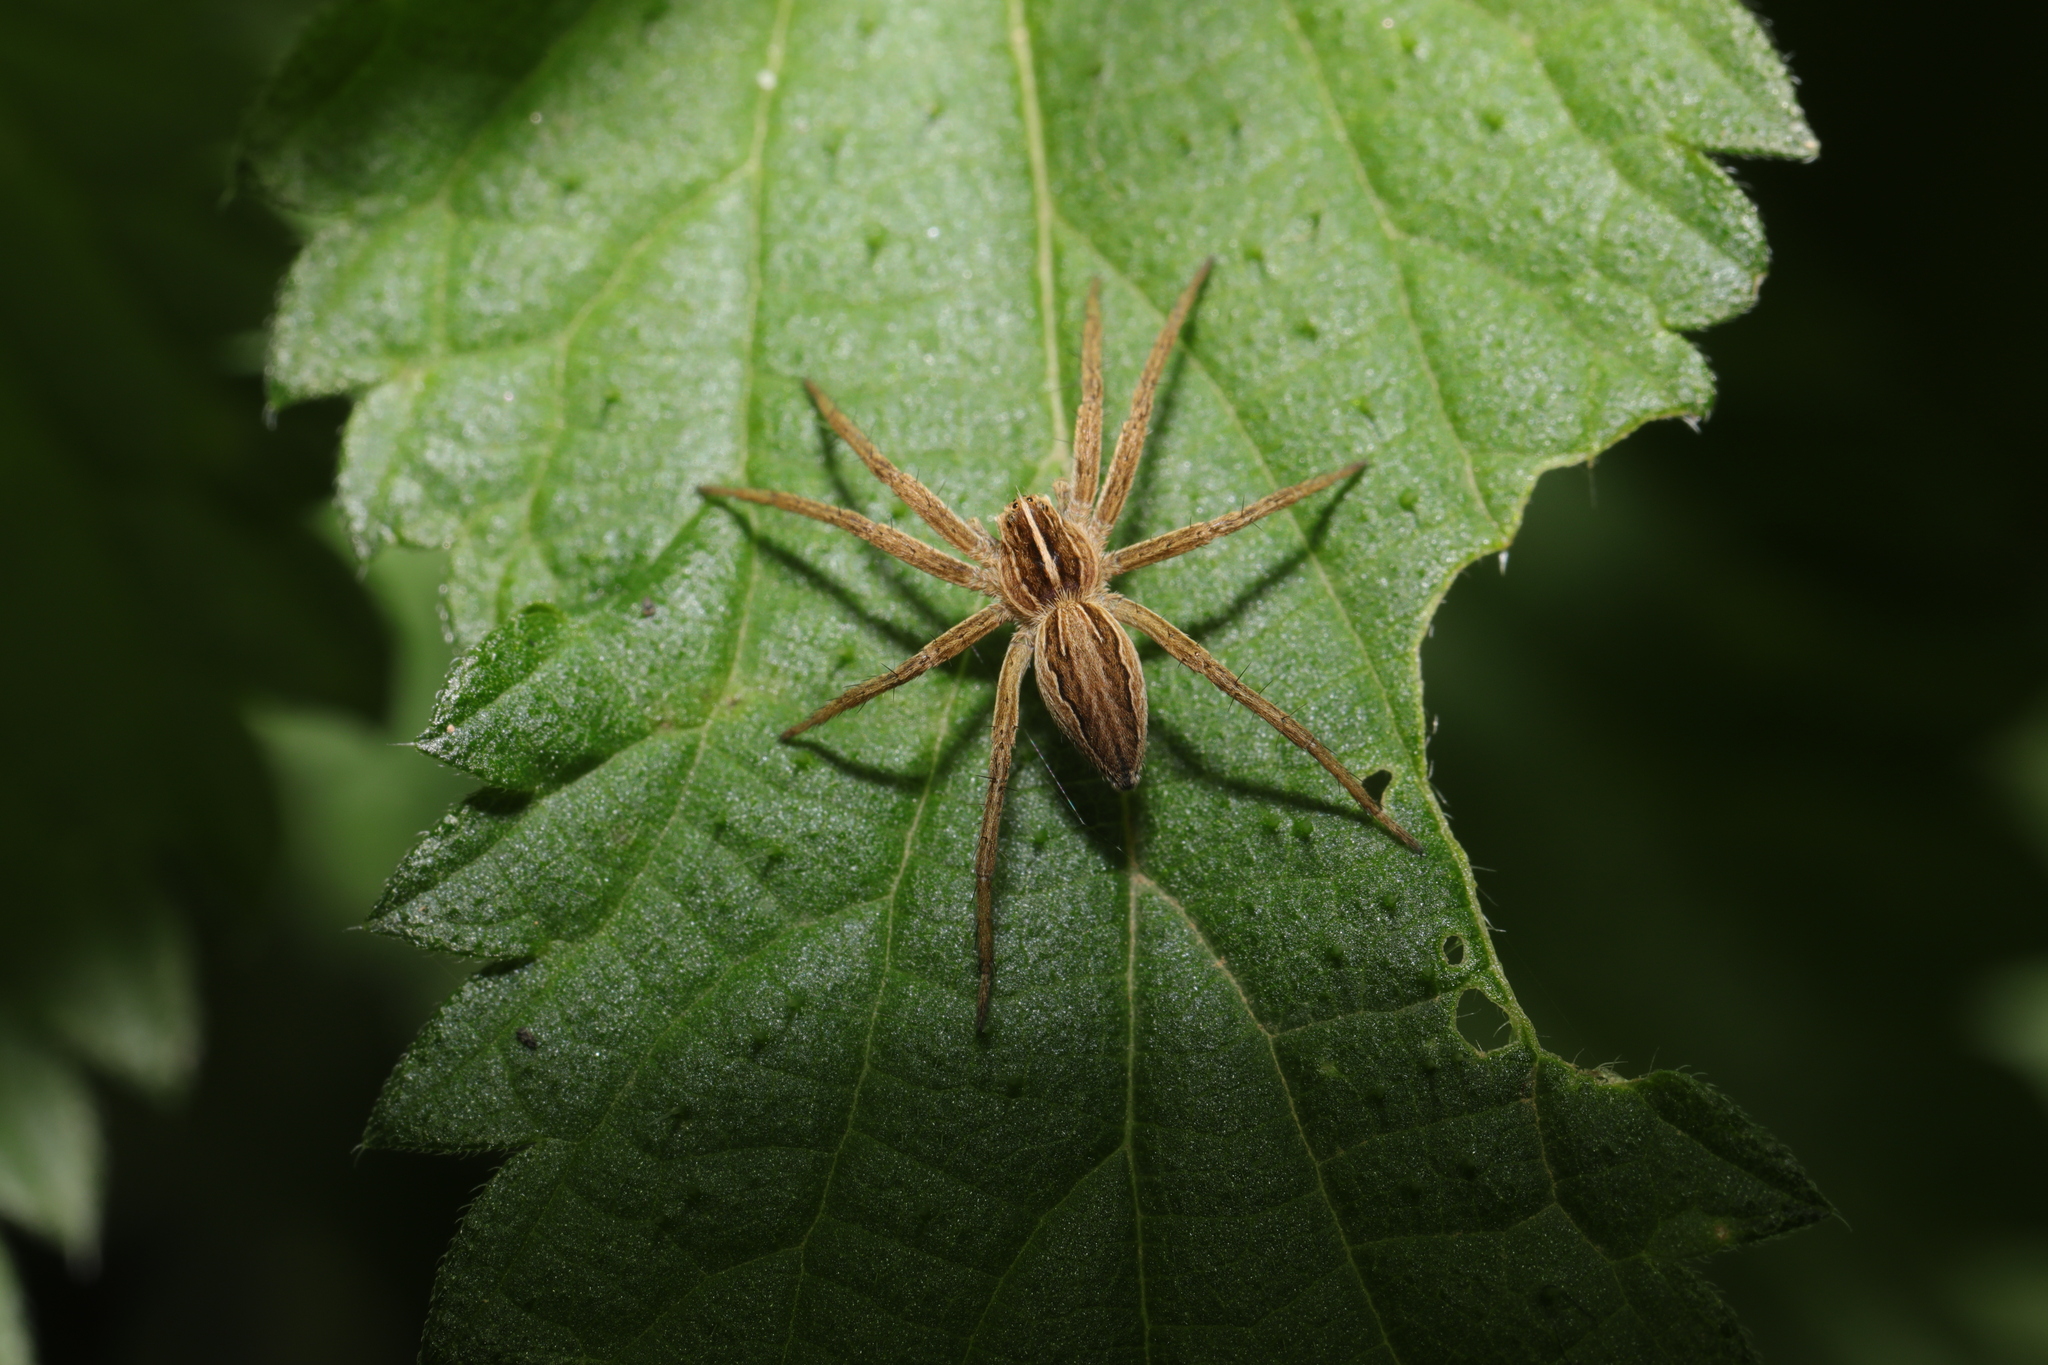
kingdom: Animalia
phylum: Arthropoda
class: Arachnida
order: Araneae
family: Pisauridae
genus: Pisaura
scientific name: Pisaura mirabilis
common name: Tent spider
